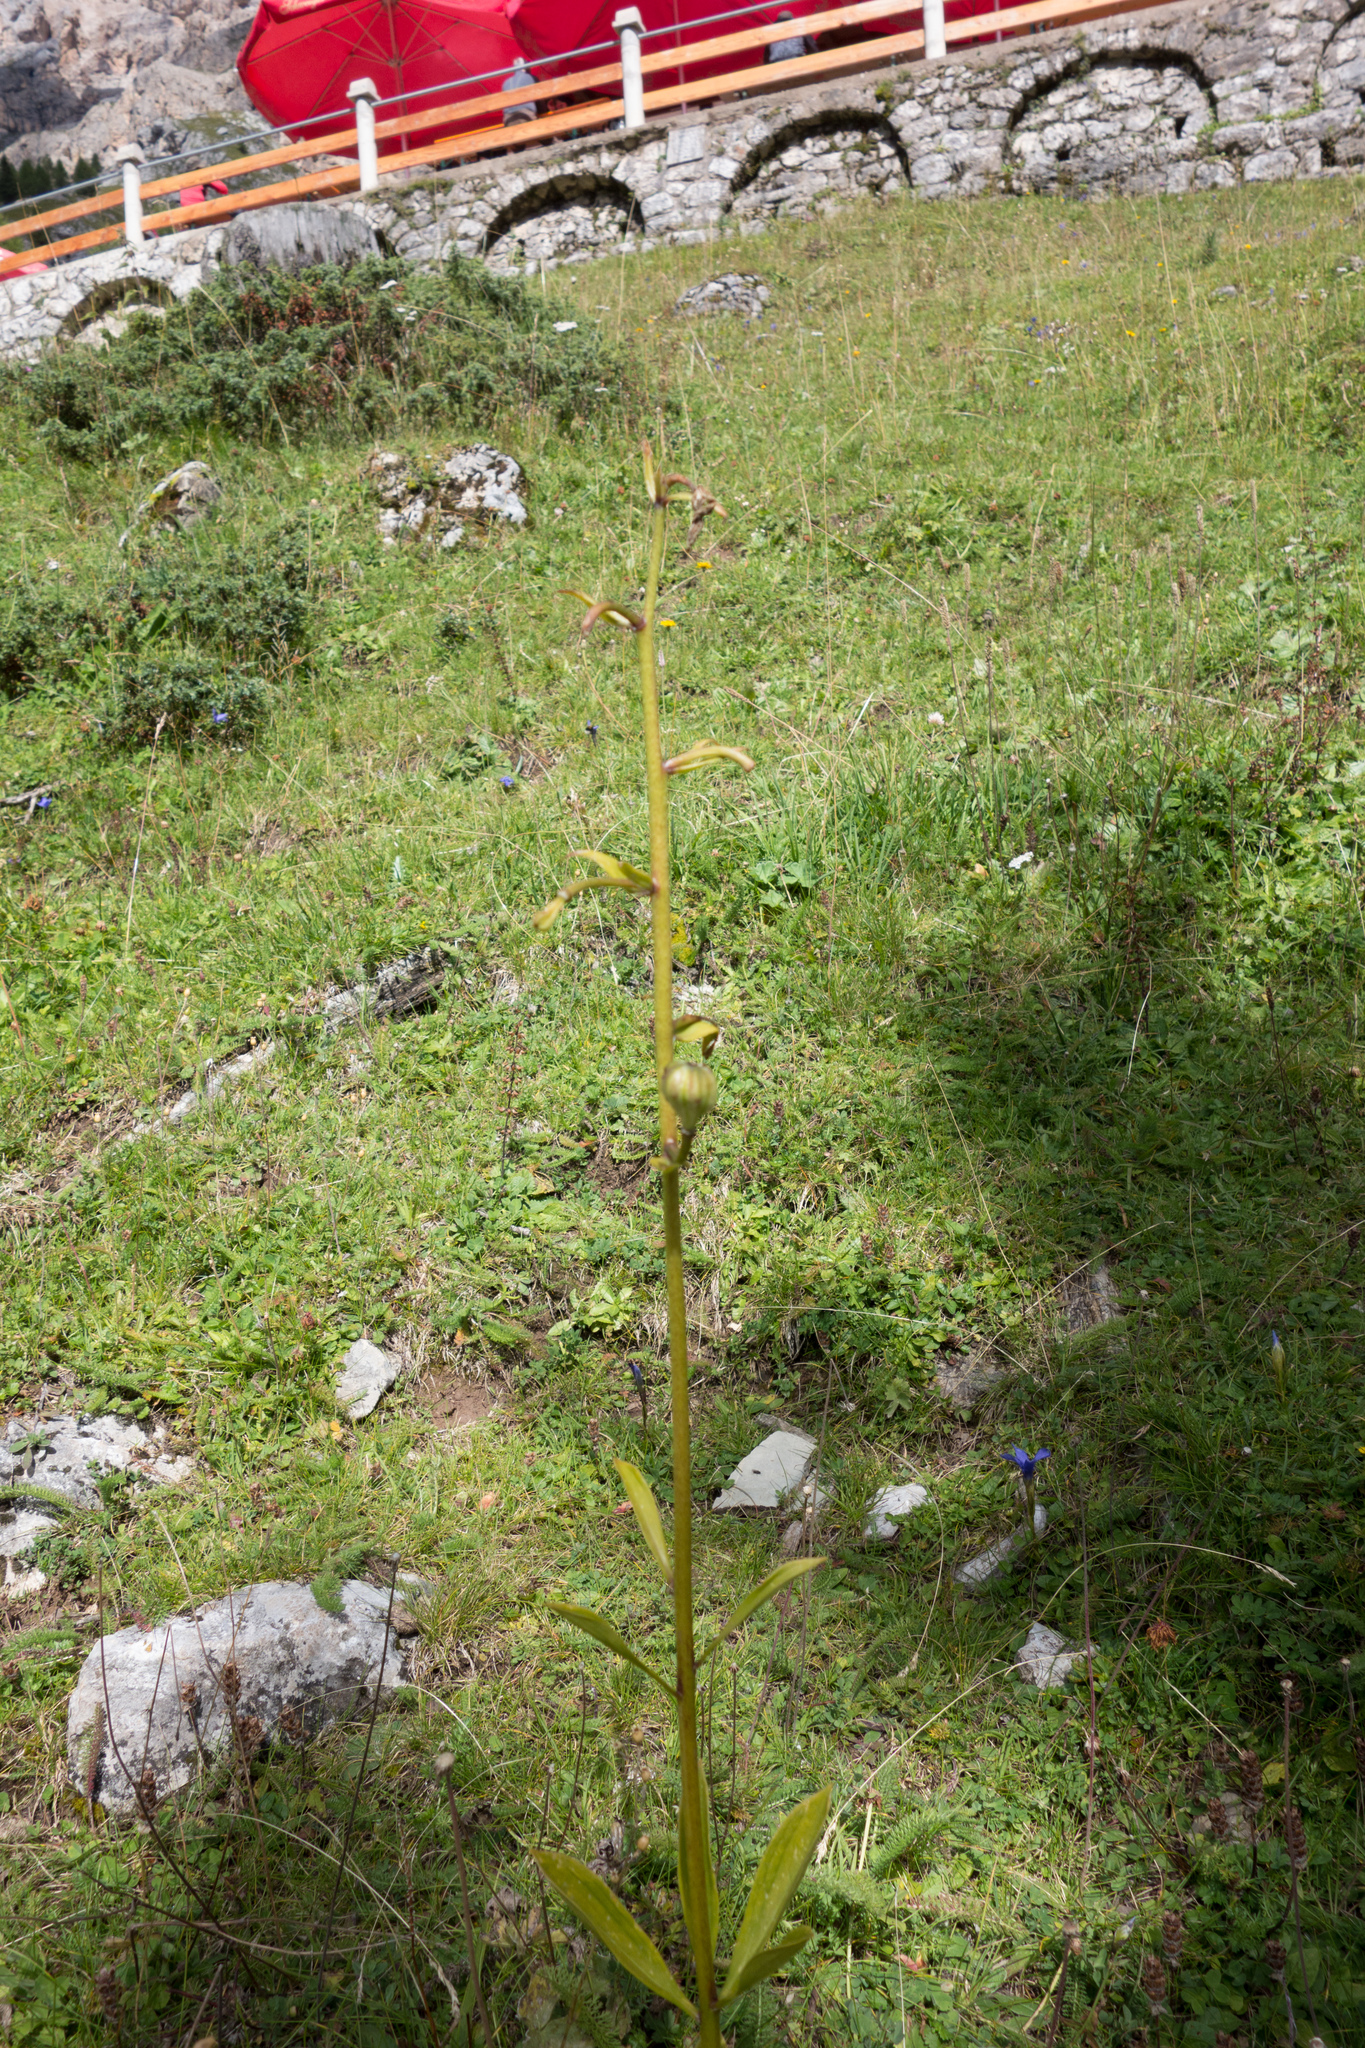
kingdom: Plantae
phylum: Tracheophyta
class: Liliopsida
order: Liliales
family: Liliaceae
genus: Lilium
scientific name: Lilium martagon
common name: Martagon lily
